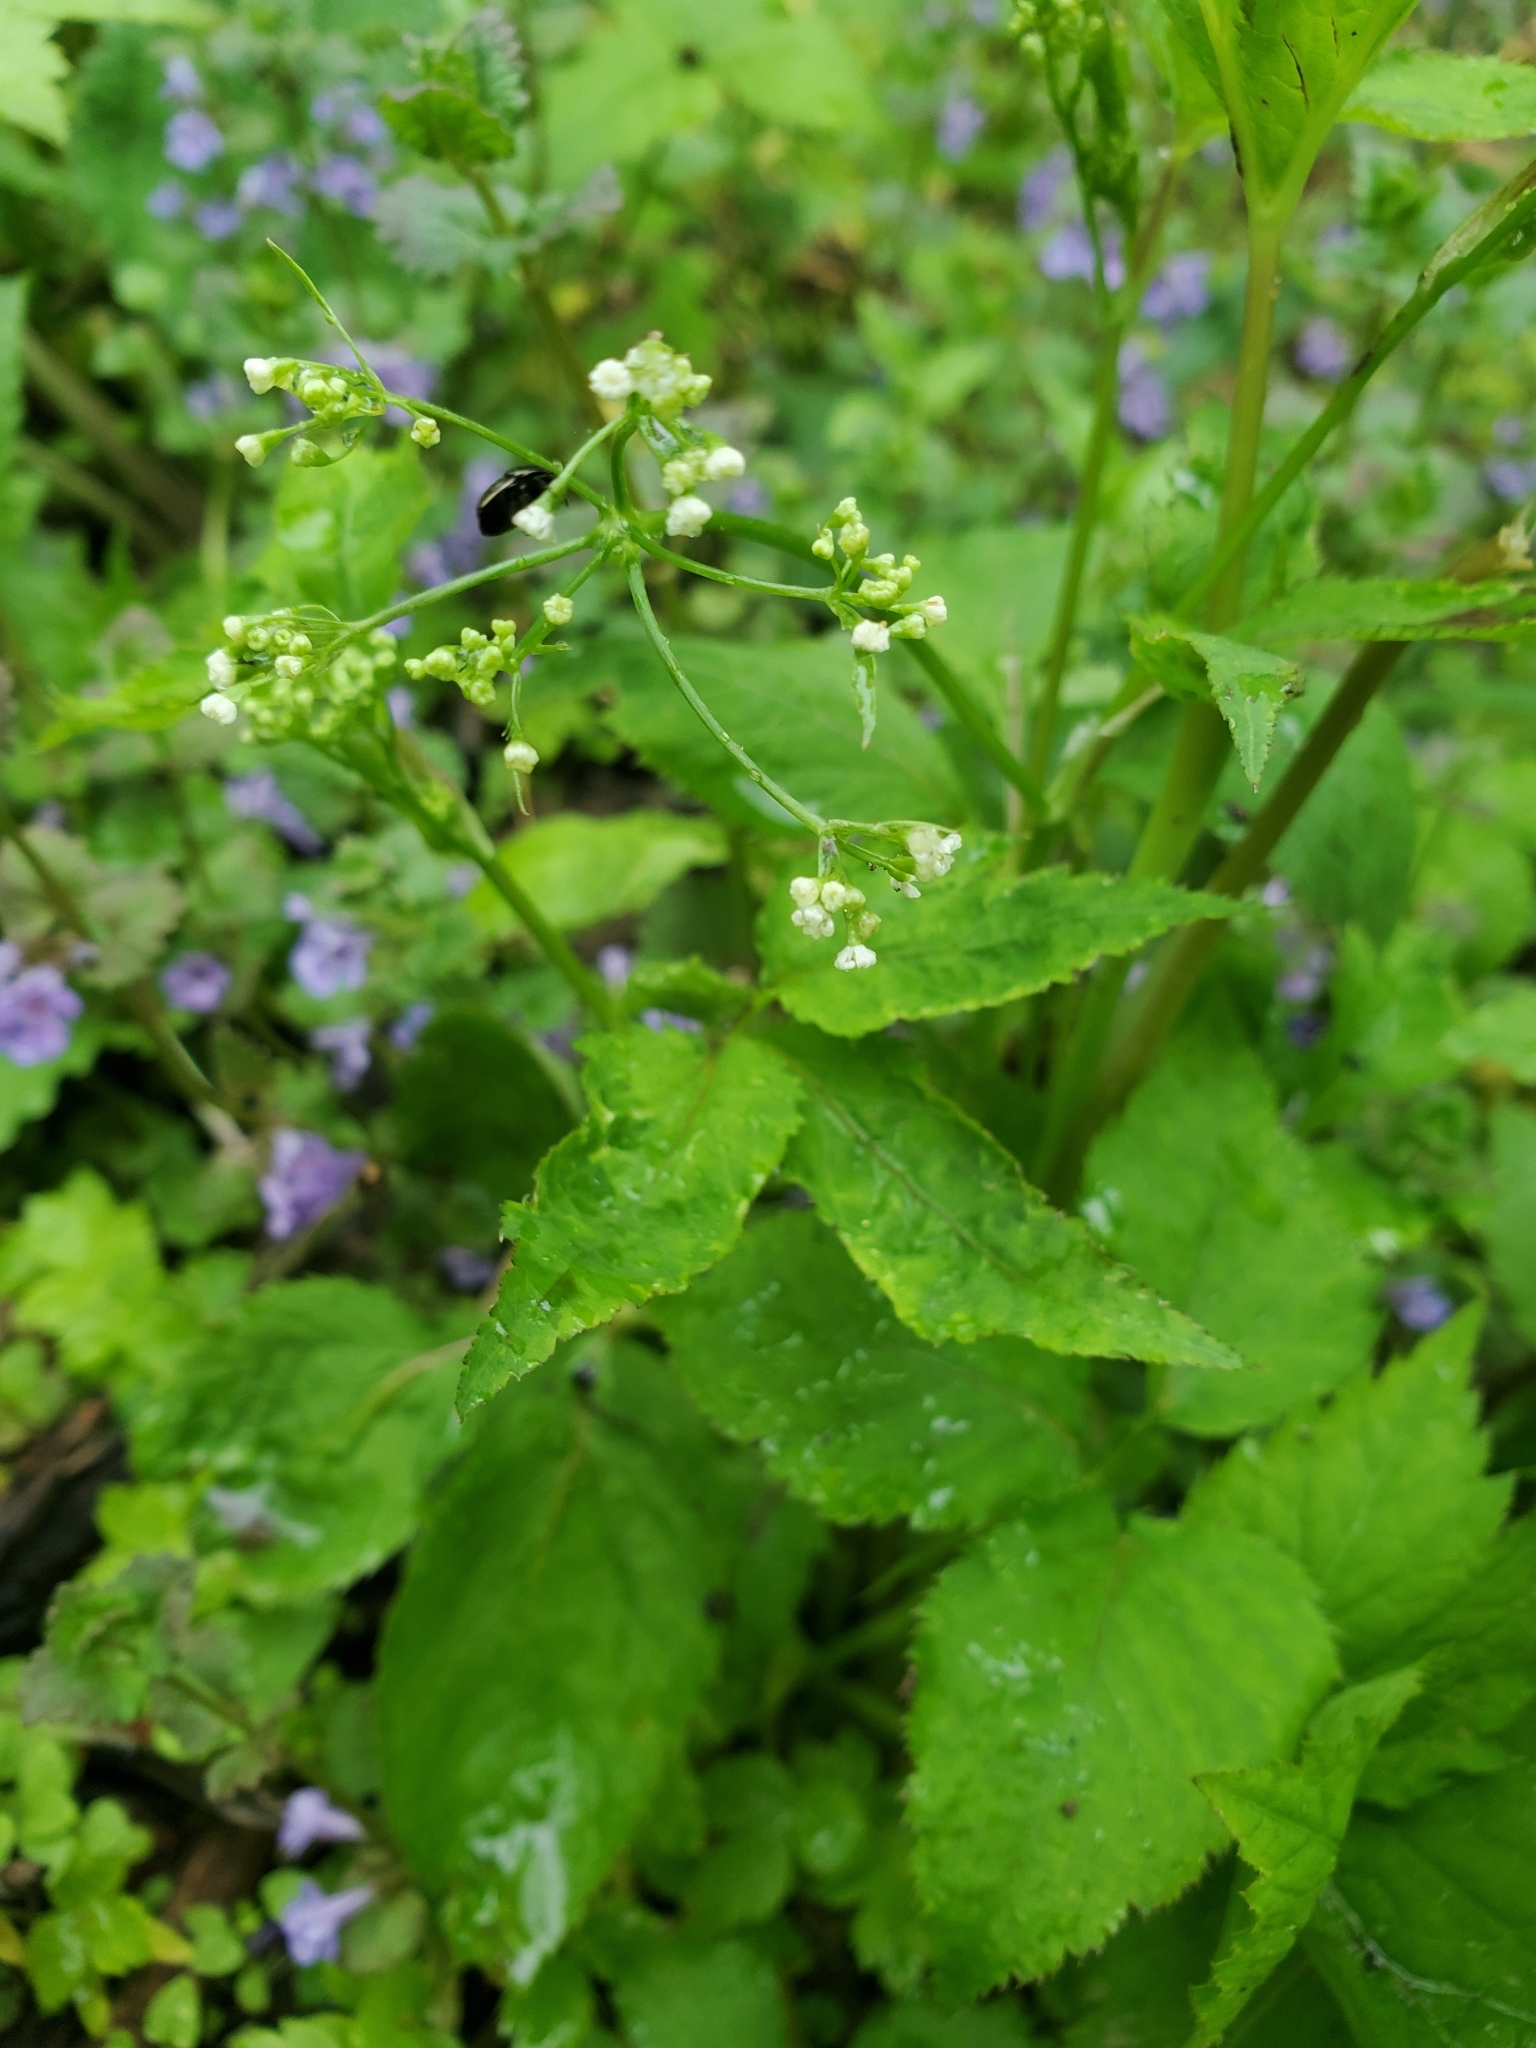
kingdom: Plantae
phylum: Tracheophyta
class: Magnoliopsida
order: Apiales
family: Apiaceae
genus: Cryptotaenia
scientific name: Cryptotaenia canadensis
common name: Honewort
